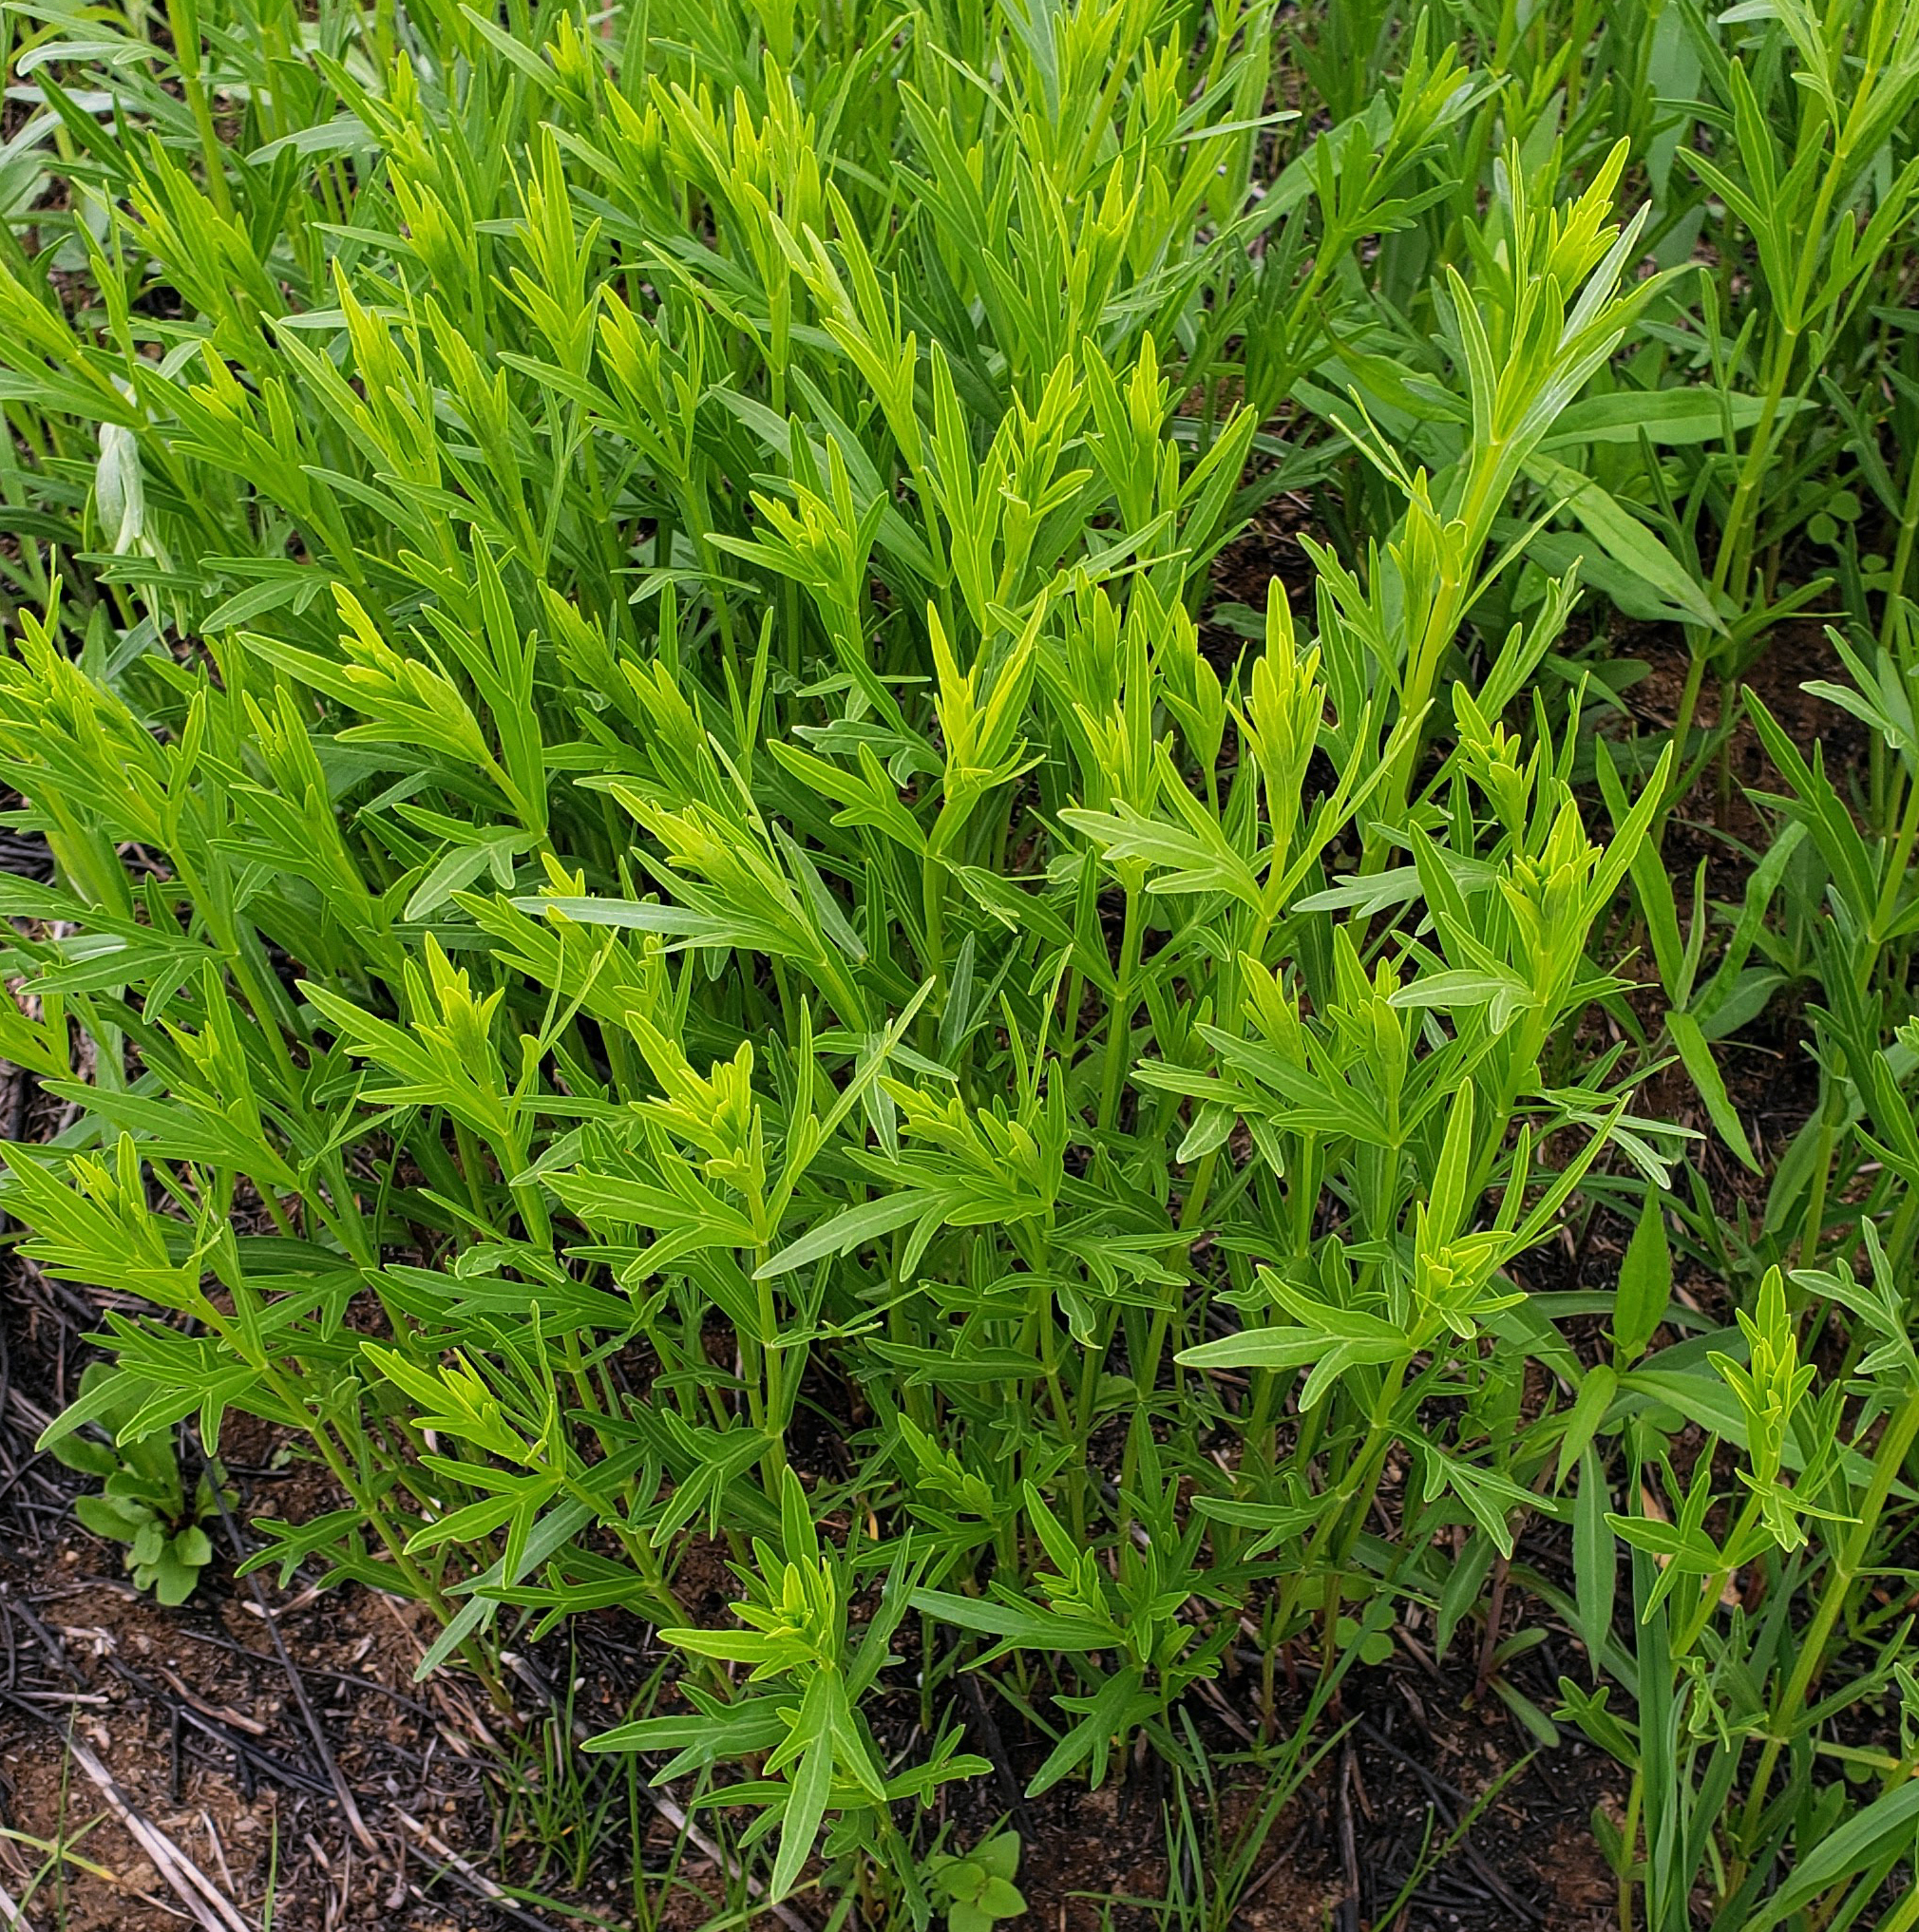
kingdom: Plantae
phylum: Tracheophyta
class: Magnoliopsida
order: Asterales
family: Asteraceae
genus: Coreopsis
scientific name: Coreopsis palmata
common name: Prairie coreopsis
